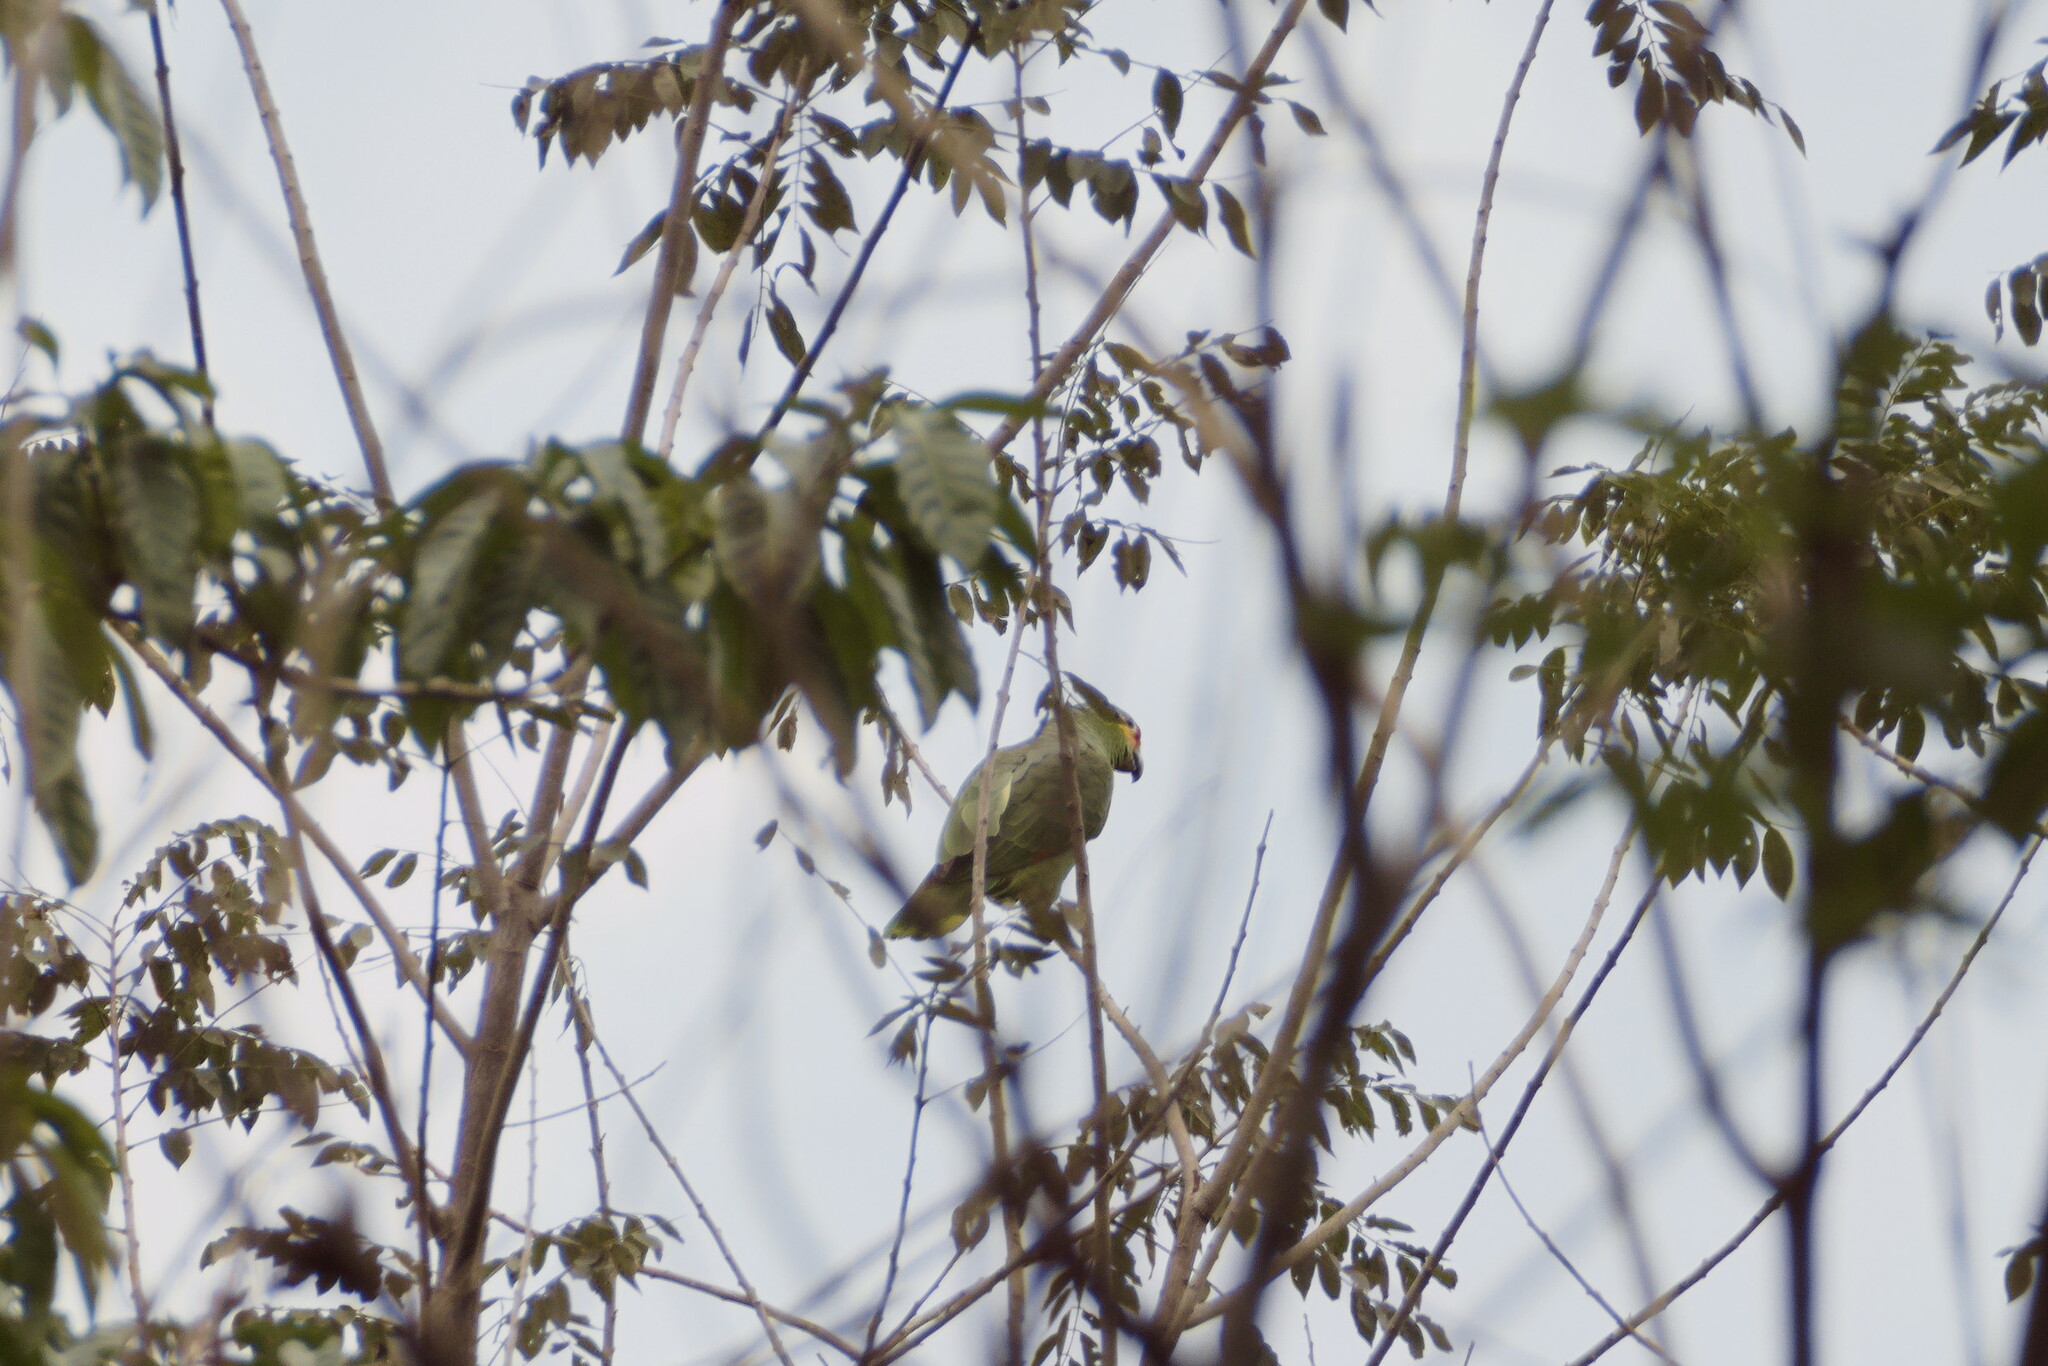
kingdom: Animalia
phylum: Chordata
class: Aves
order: Psittaciformes
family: Psittacidae
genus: Amazona
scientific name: Amazona autumnalis
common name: Red-lored amazon
